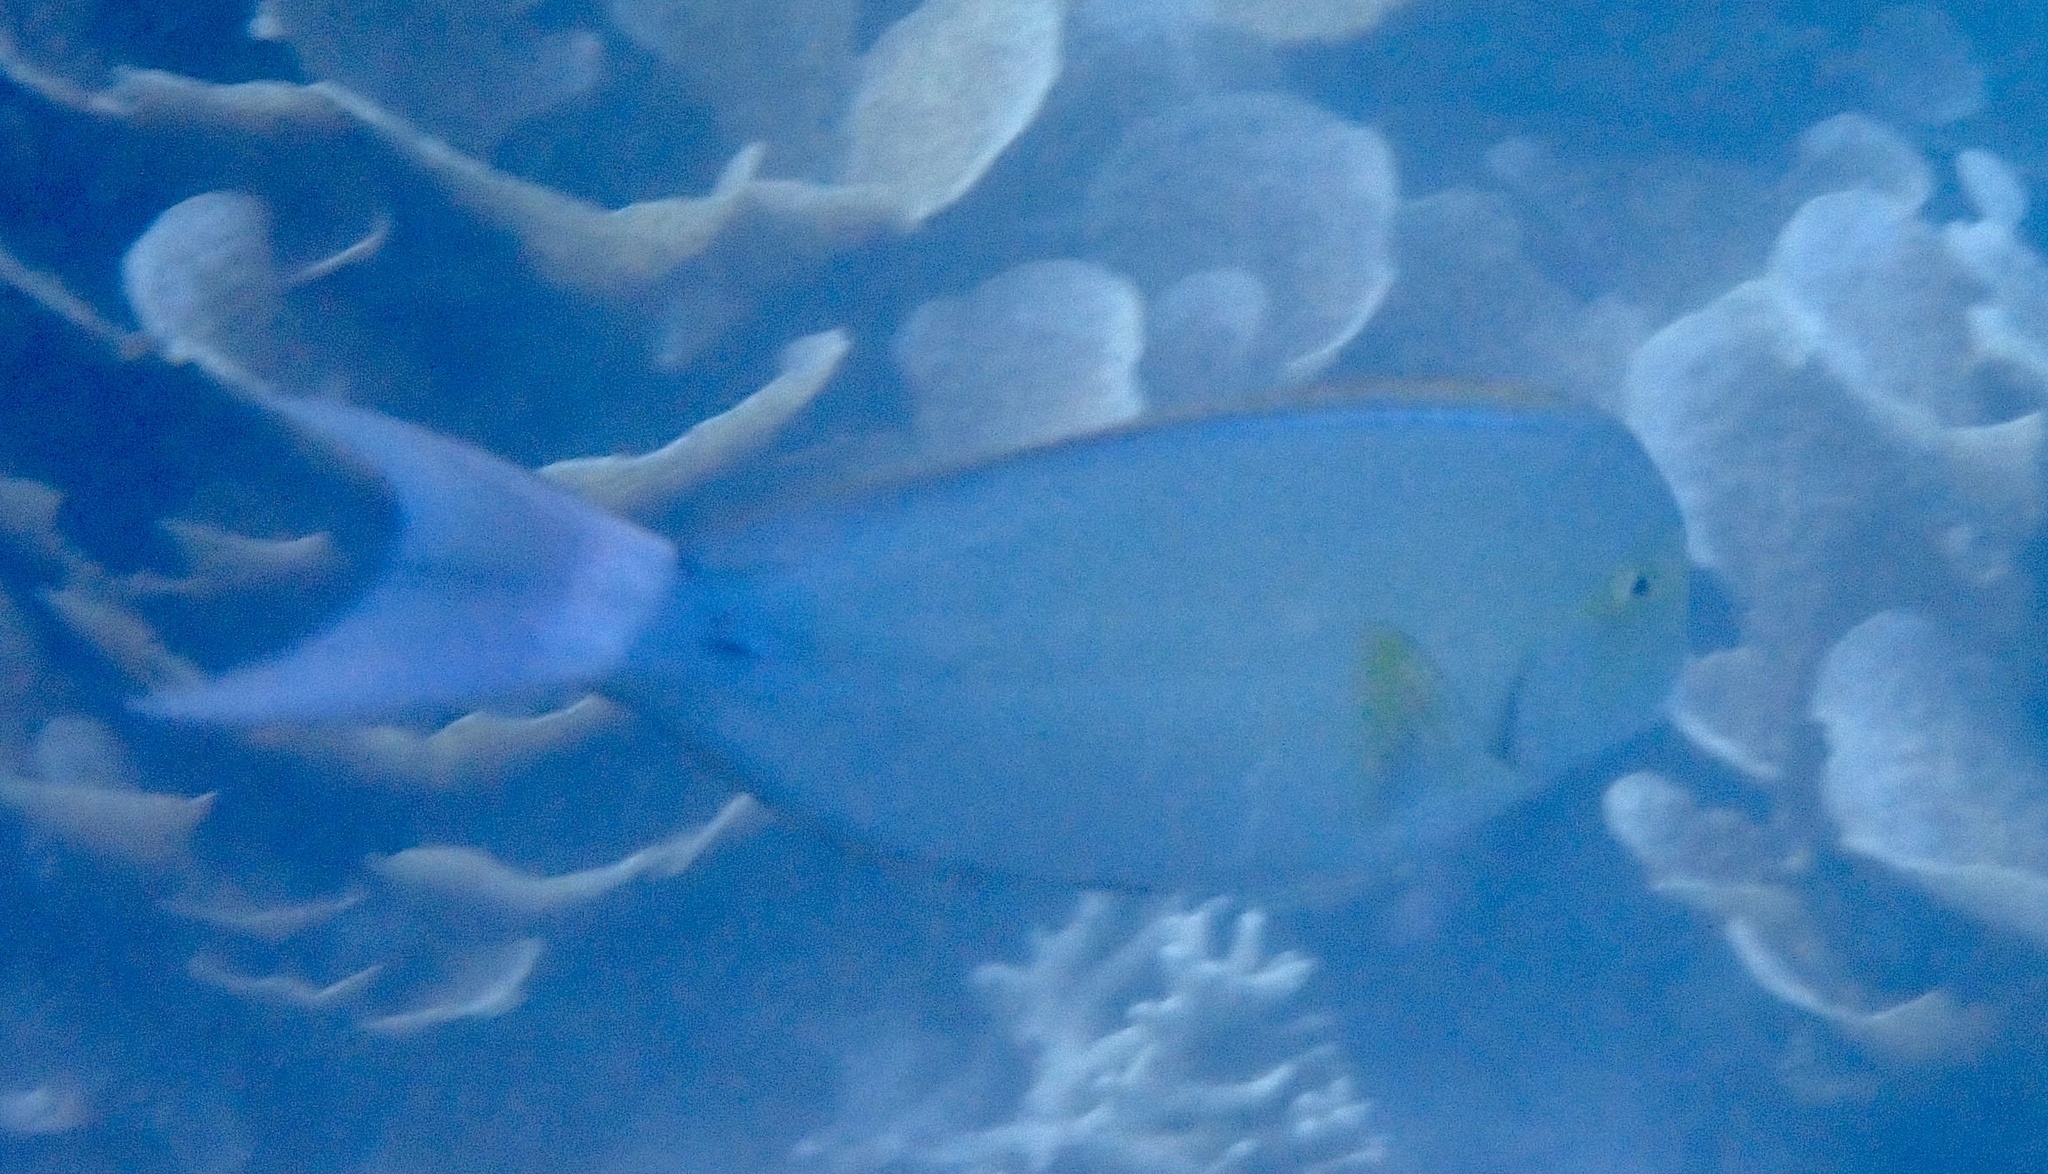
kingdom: Animalia
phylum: Chordata
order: Perciformes
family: Acanthuridae
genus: Acanthurus
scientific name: Acanthurus xanthopterus
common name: Cuvier's surgeonfish
